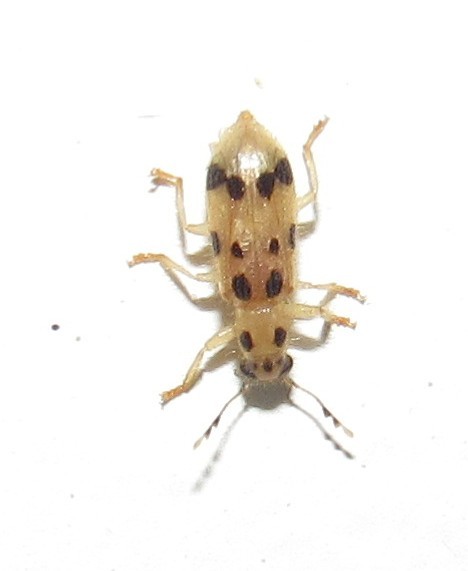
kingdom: Animalia
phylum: Arthropoda
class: Insecta
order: Coleoptera
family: Cleridae
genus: Cregya
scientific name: Cregya
